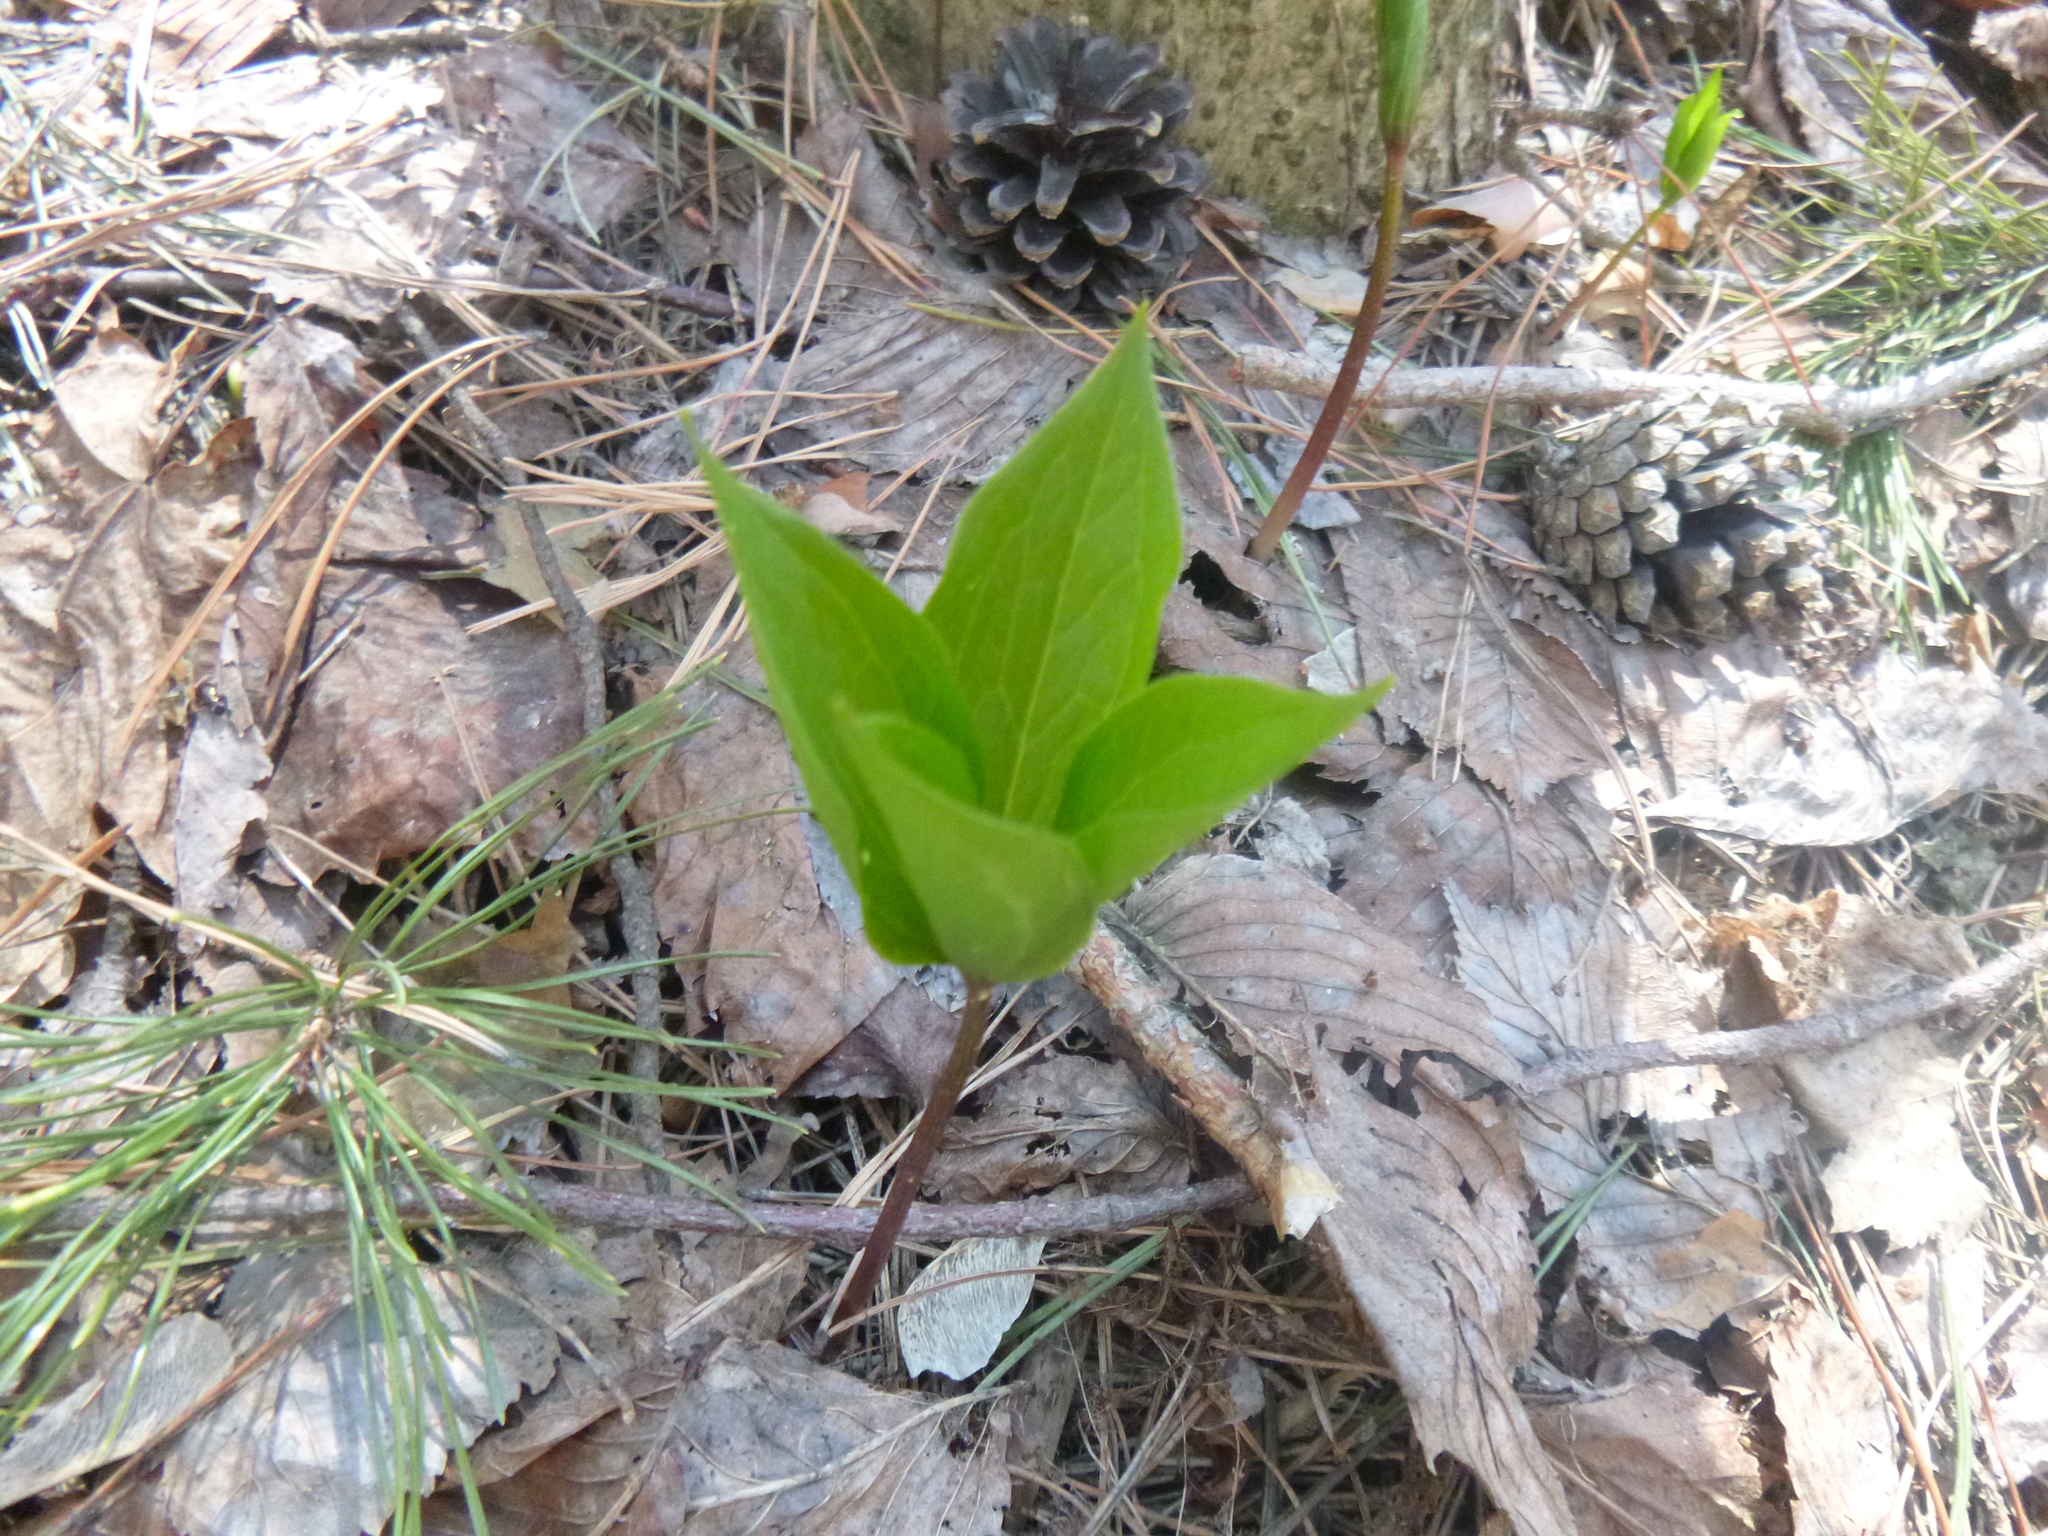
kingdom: Plantae
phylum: Tracheophyta
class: Liliopsida
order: Liliales
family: Melanthiaceae
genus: Paris
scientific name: Paris quadrifolia
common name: Herb-paris
